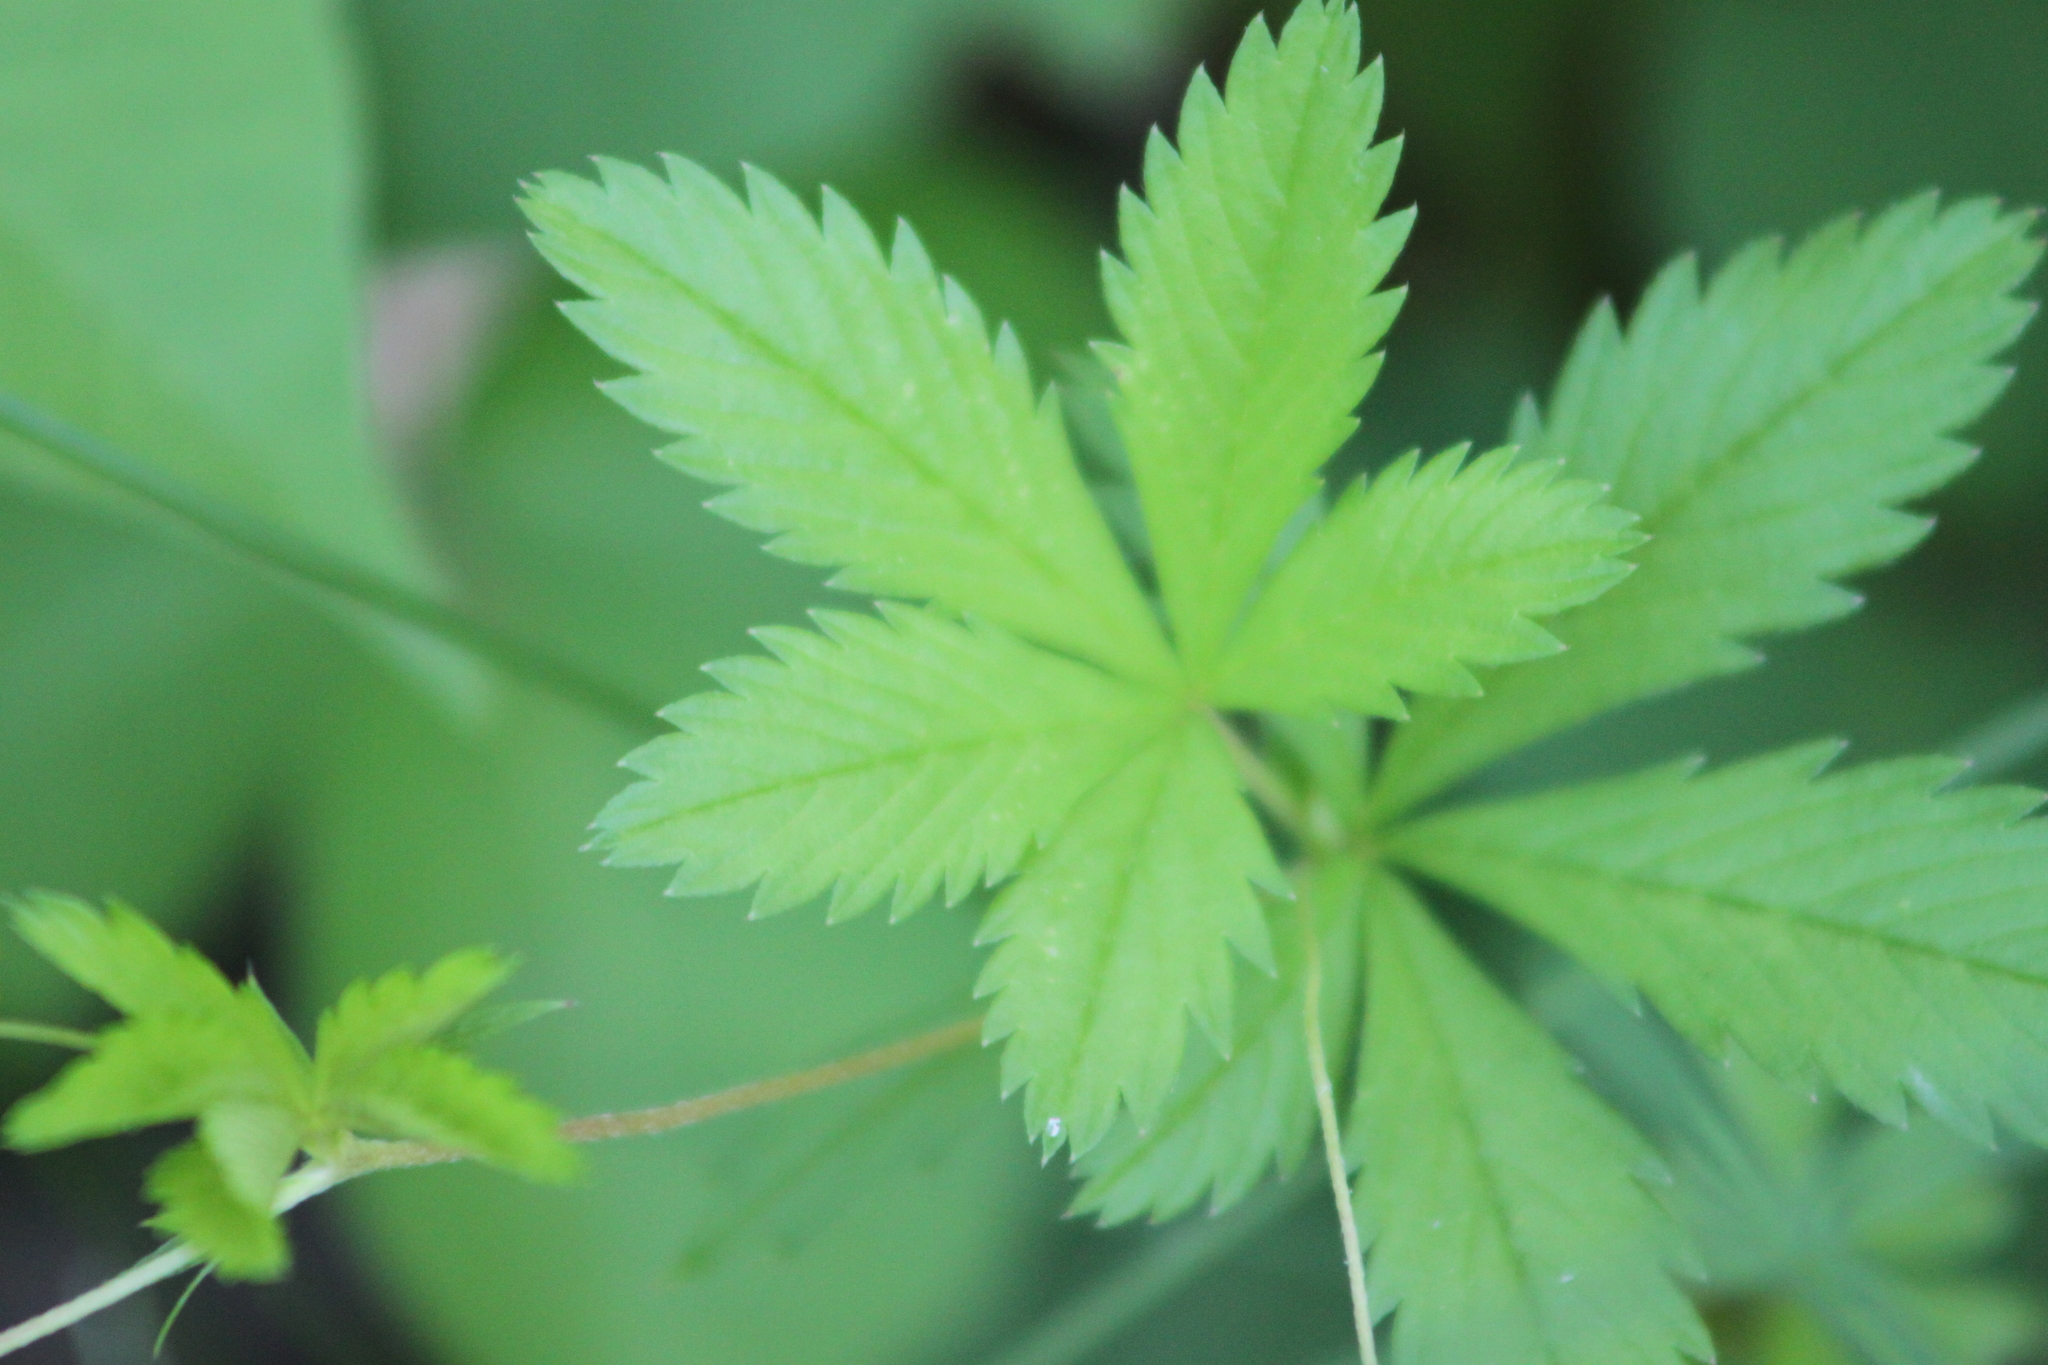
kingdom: Plantae
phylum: Tracheophyta
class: Magnoliopsida
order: Rosales
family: Rosaceae
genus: Potentilla
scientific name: Potentilla simplex
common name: Old field cinquefoil
